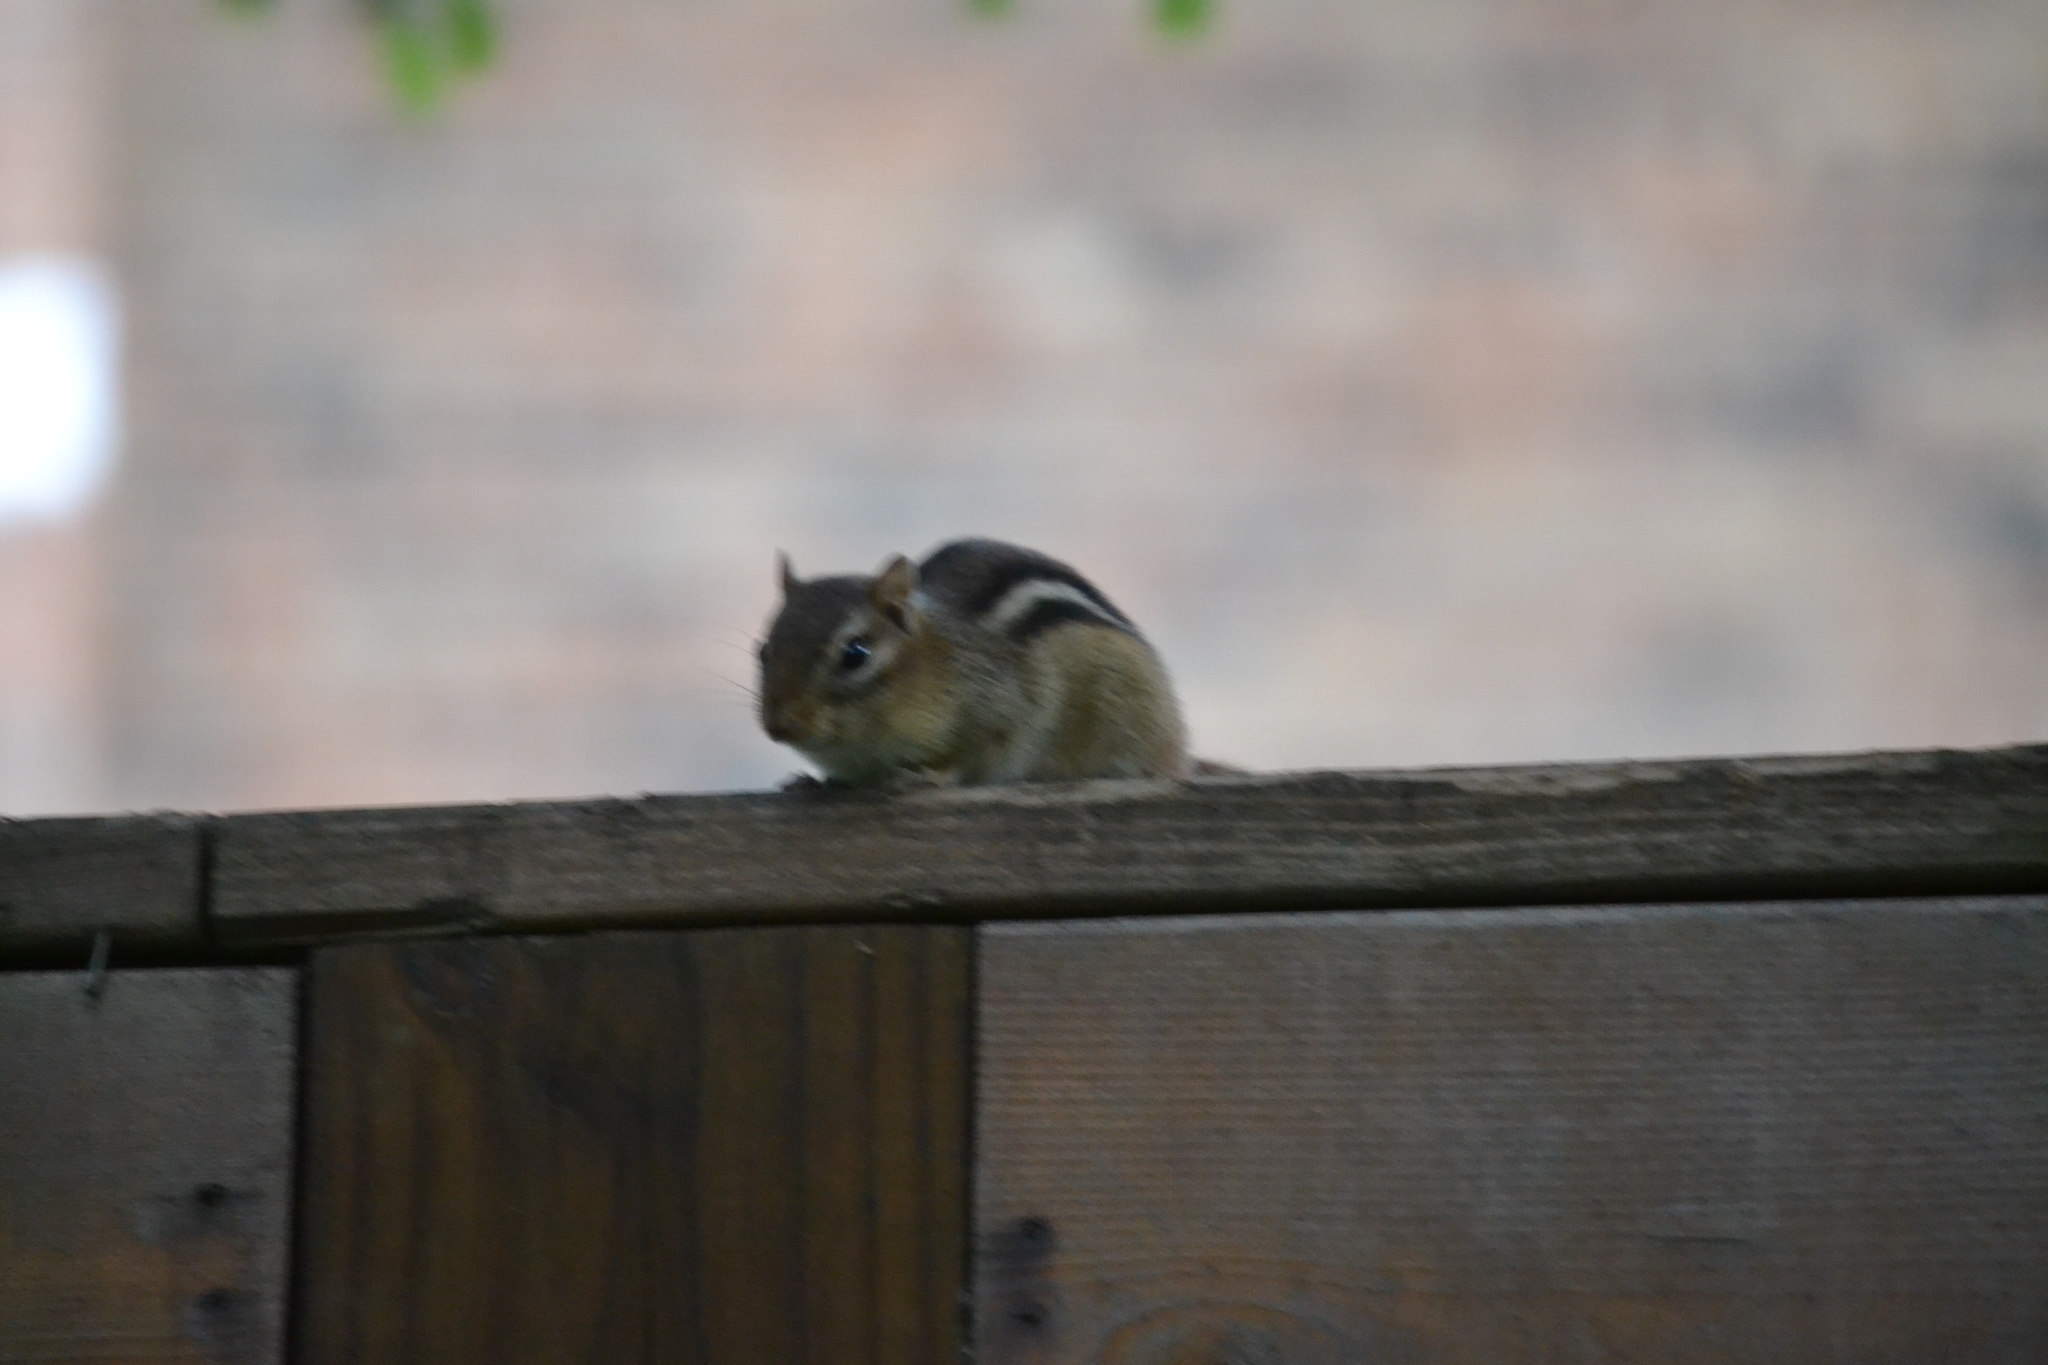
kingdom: Animalia
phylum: Chordata
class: Mammalia
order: Rodentia
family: Sciuridae
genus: Tamias
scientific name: Tamias striatus
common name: Eastern chipmunk
